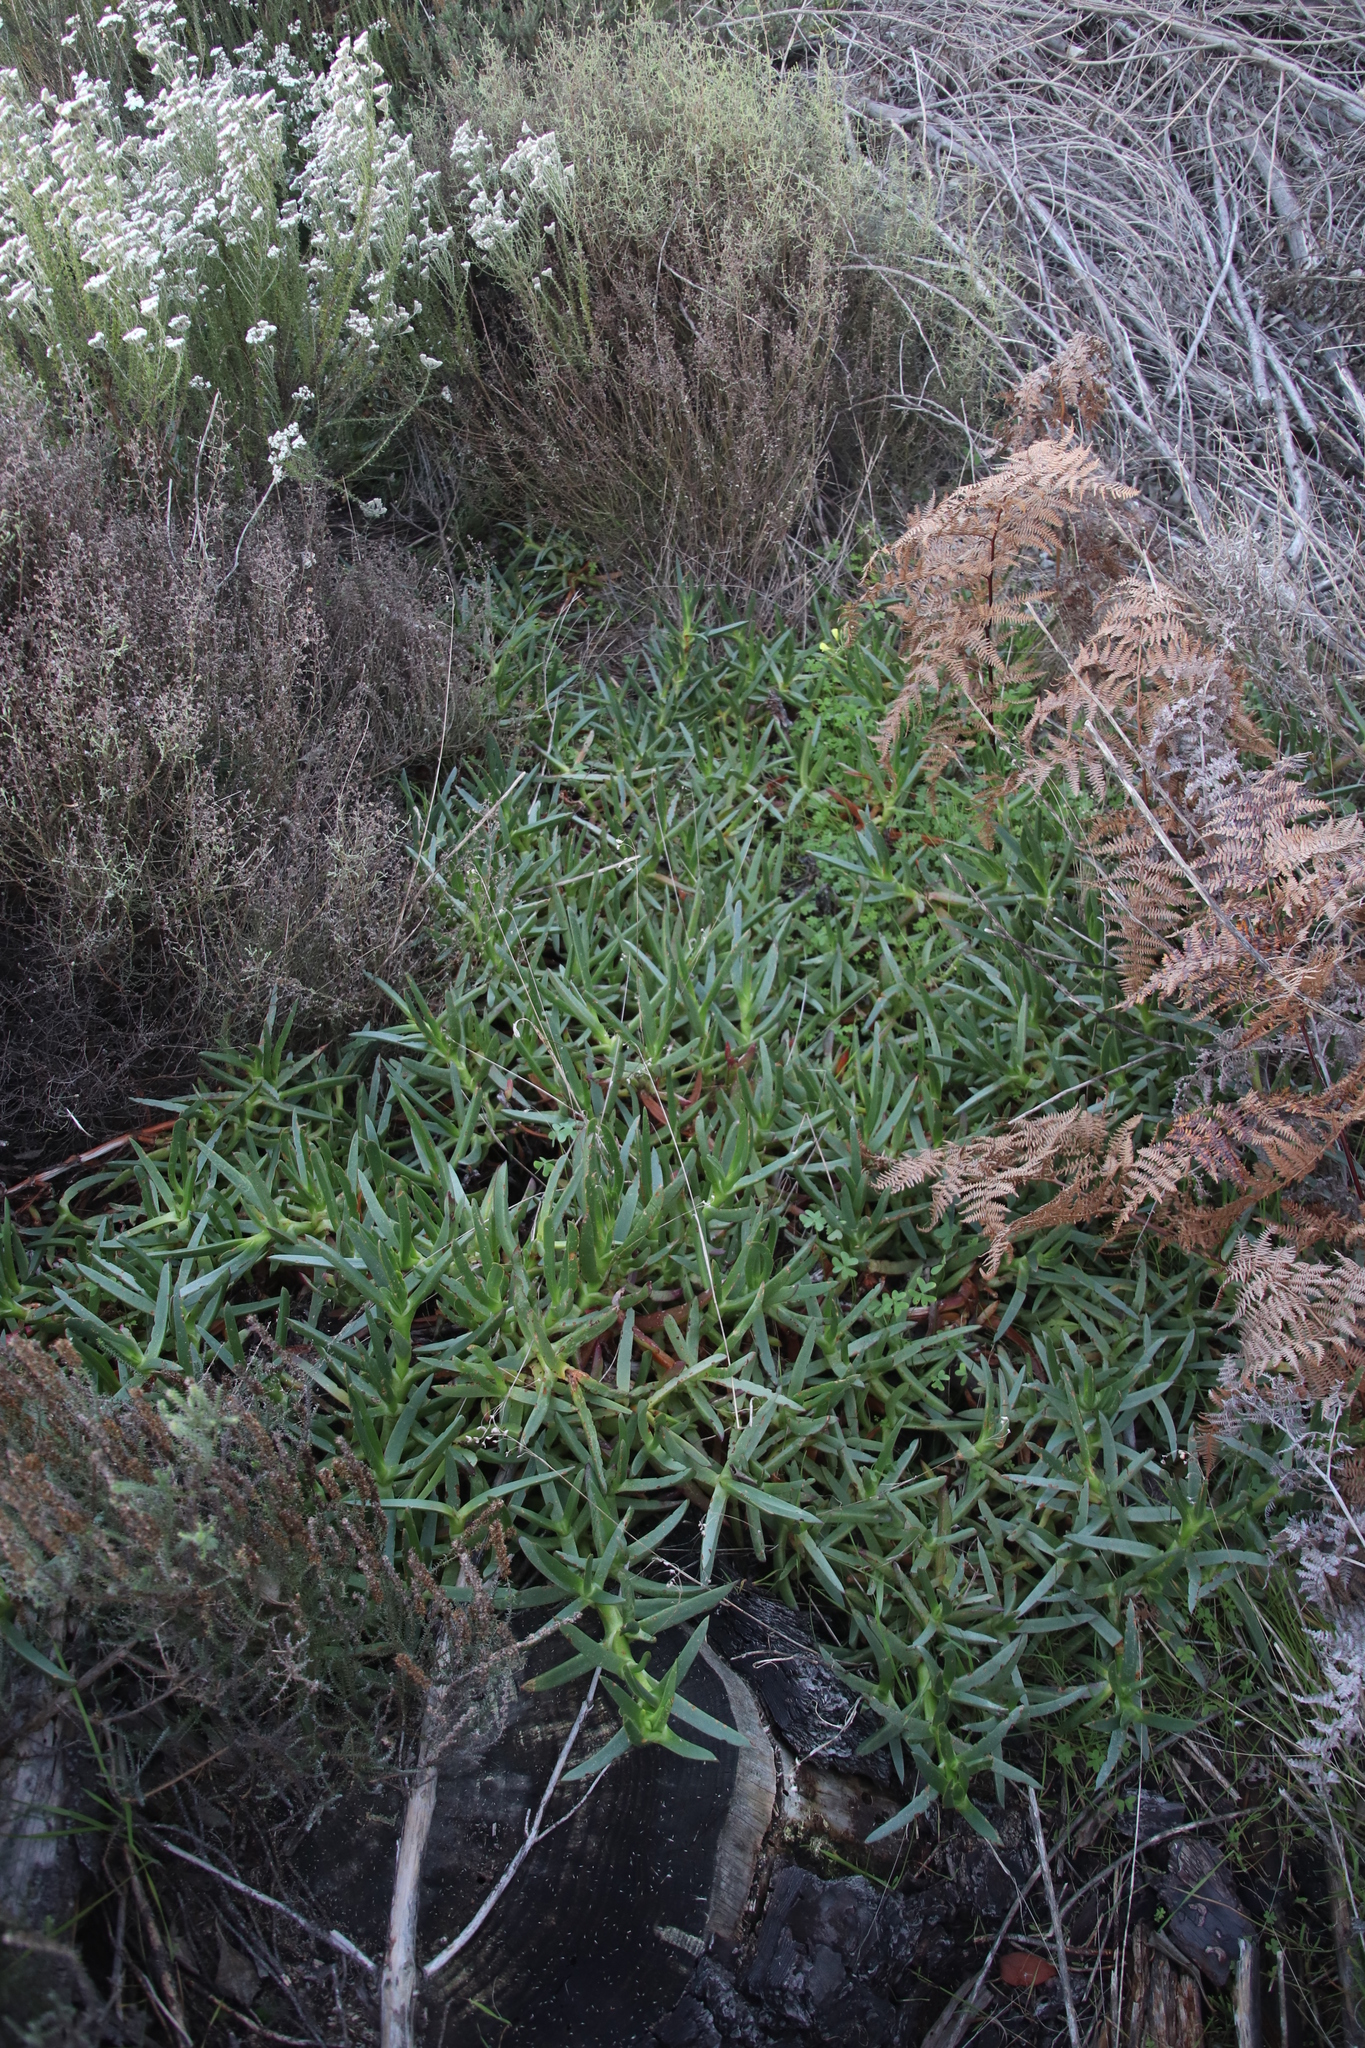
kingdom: Plantae
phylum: Tracheophyta
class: Magnoliopsida
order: Caryophyllales
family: Aizoaceae
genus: Carpobrotus
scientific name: Carpobrotus edulis
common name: Hottentot-fig
